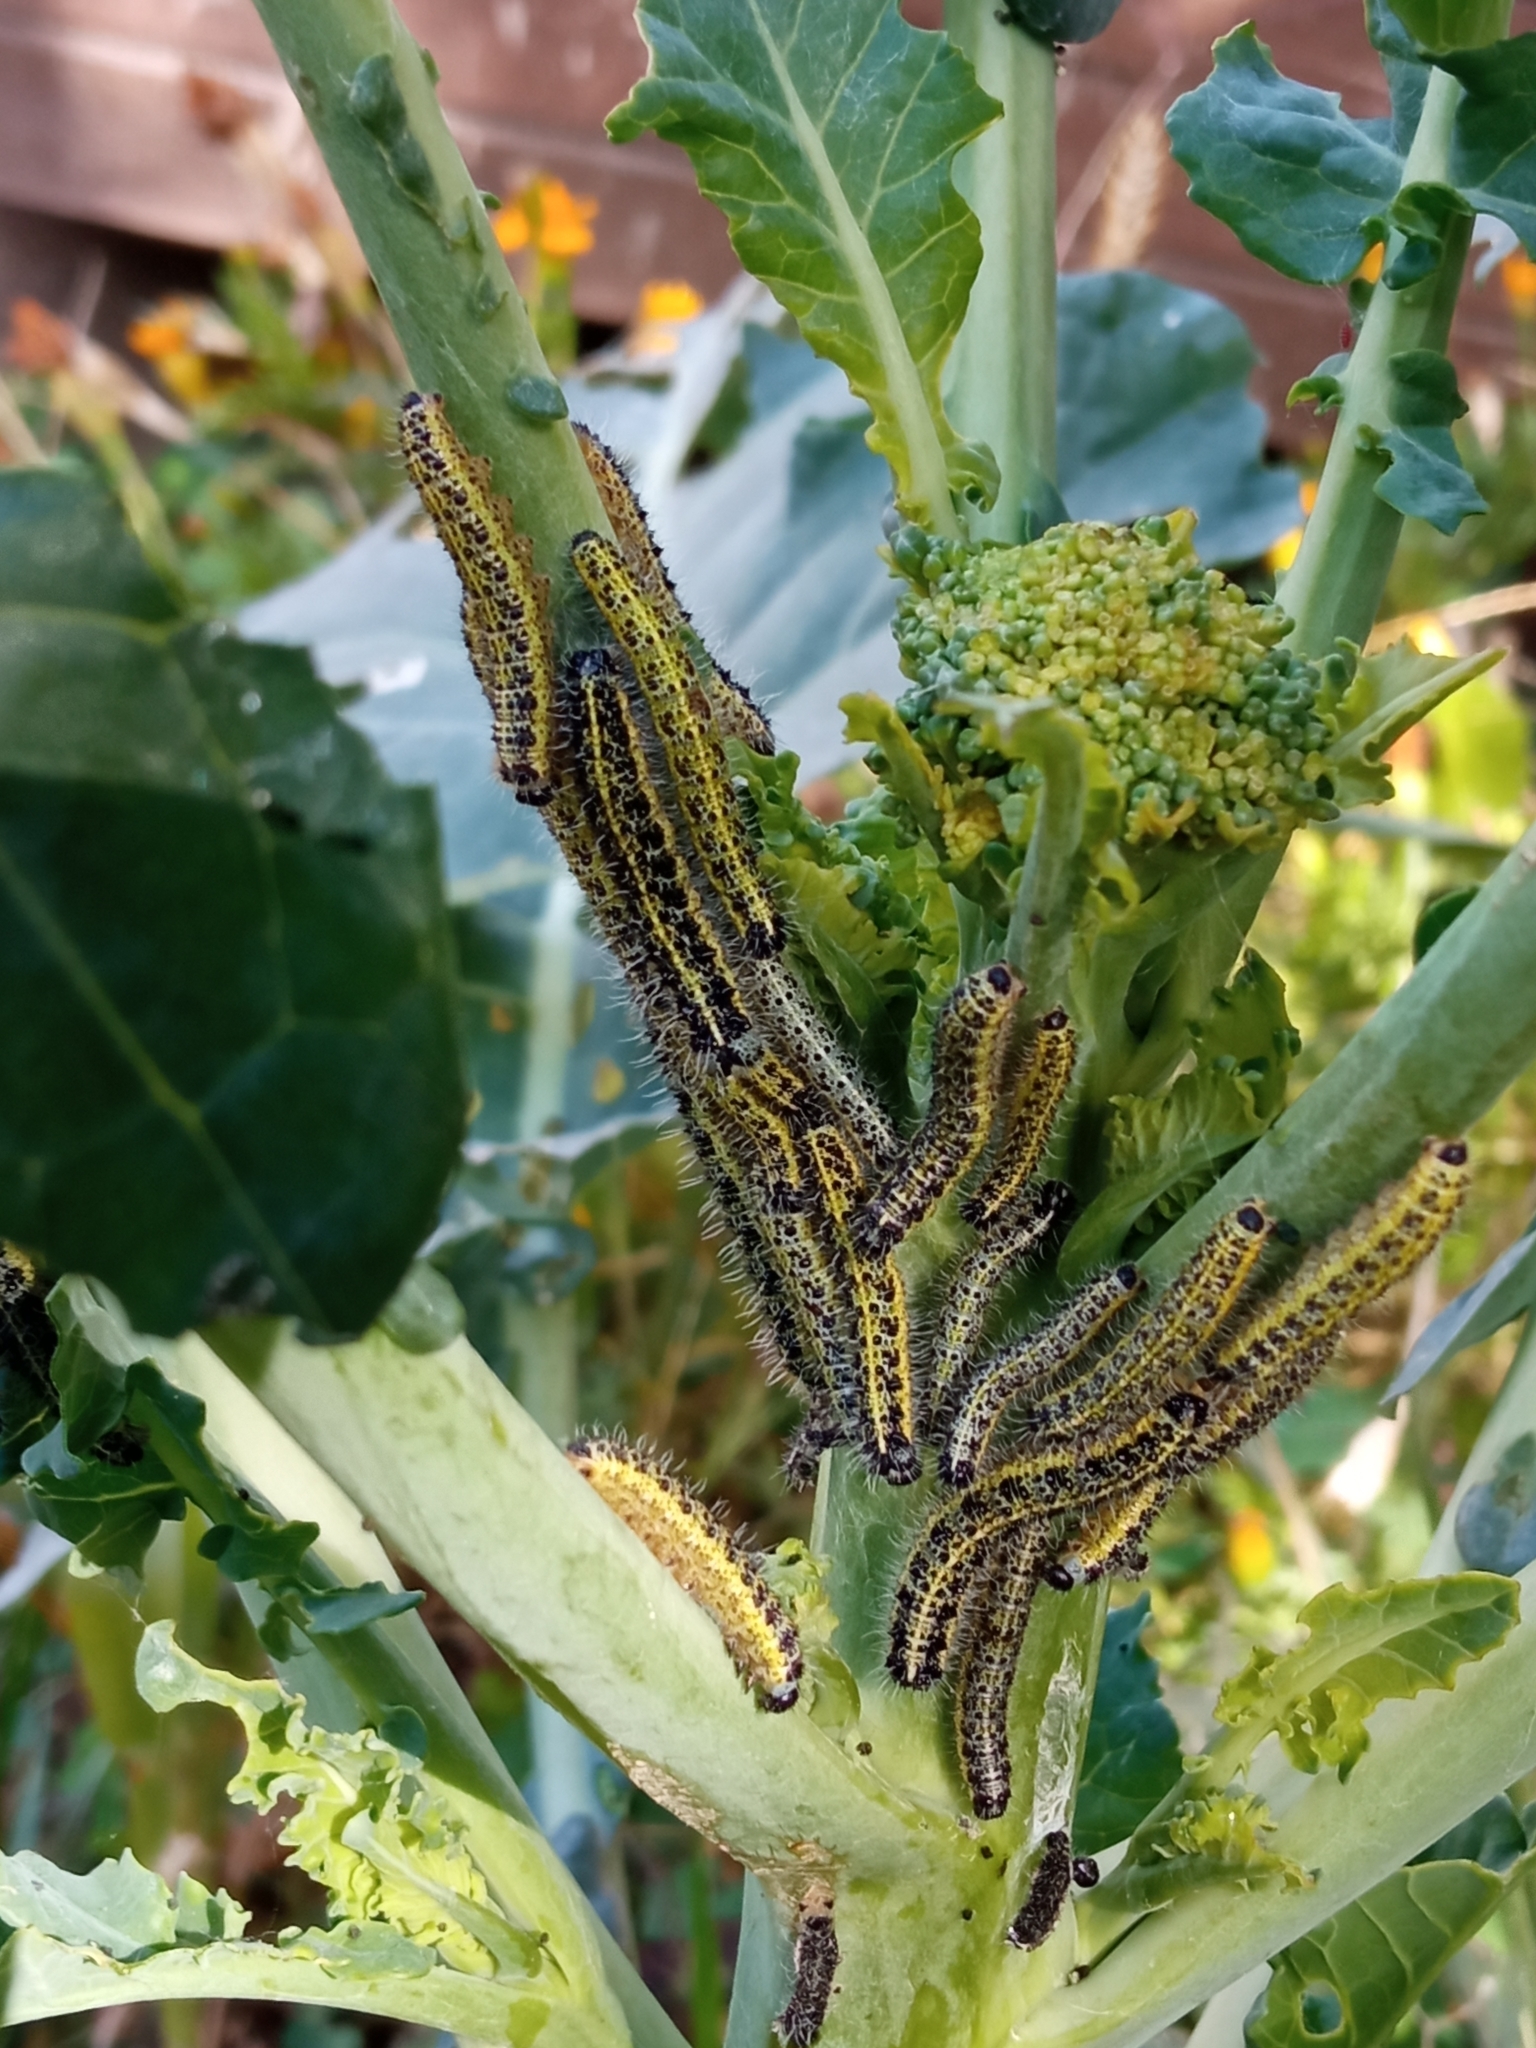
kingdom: Animalia
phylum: Arthropoda
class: Insecta
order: Lepidoptera
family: Pieridae
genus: Pieris
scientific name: Pieris brassicae
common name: Large white
